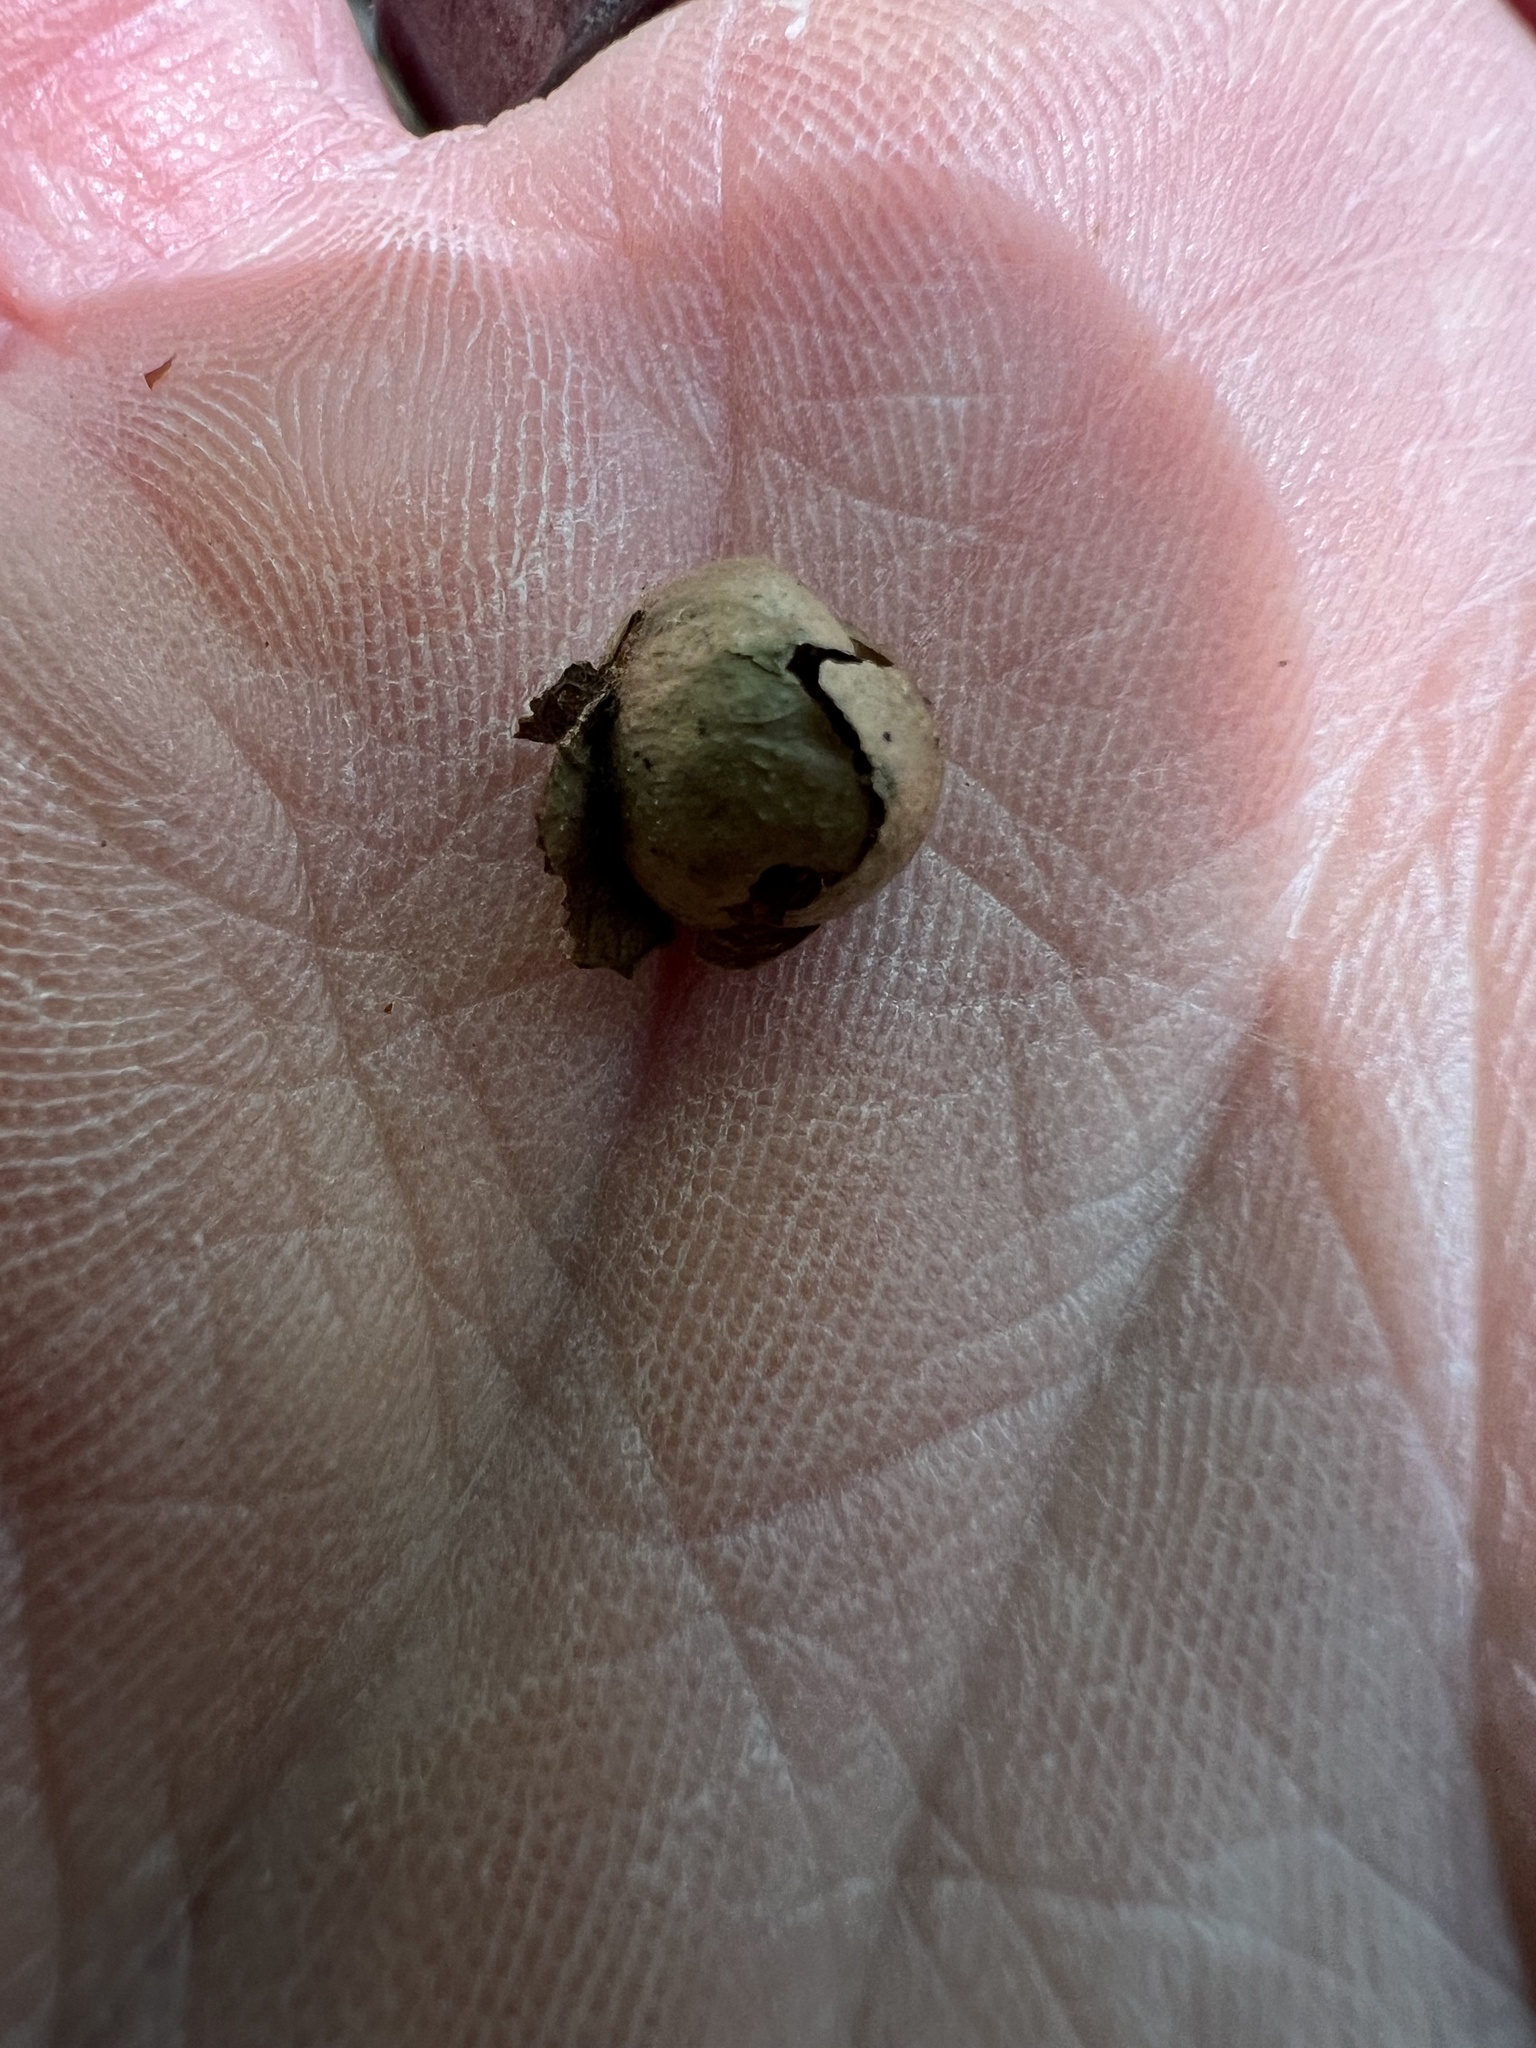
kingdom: Animalia
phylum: Arthropoda
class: Insecta
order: Hymenoptera
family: Cynipidae
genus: Amphibolips
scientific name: Amphibolips
